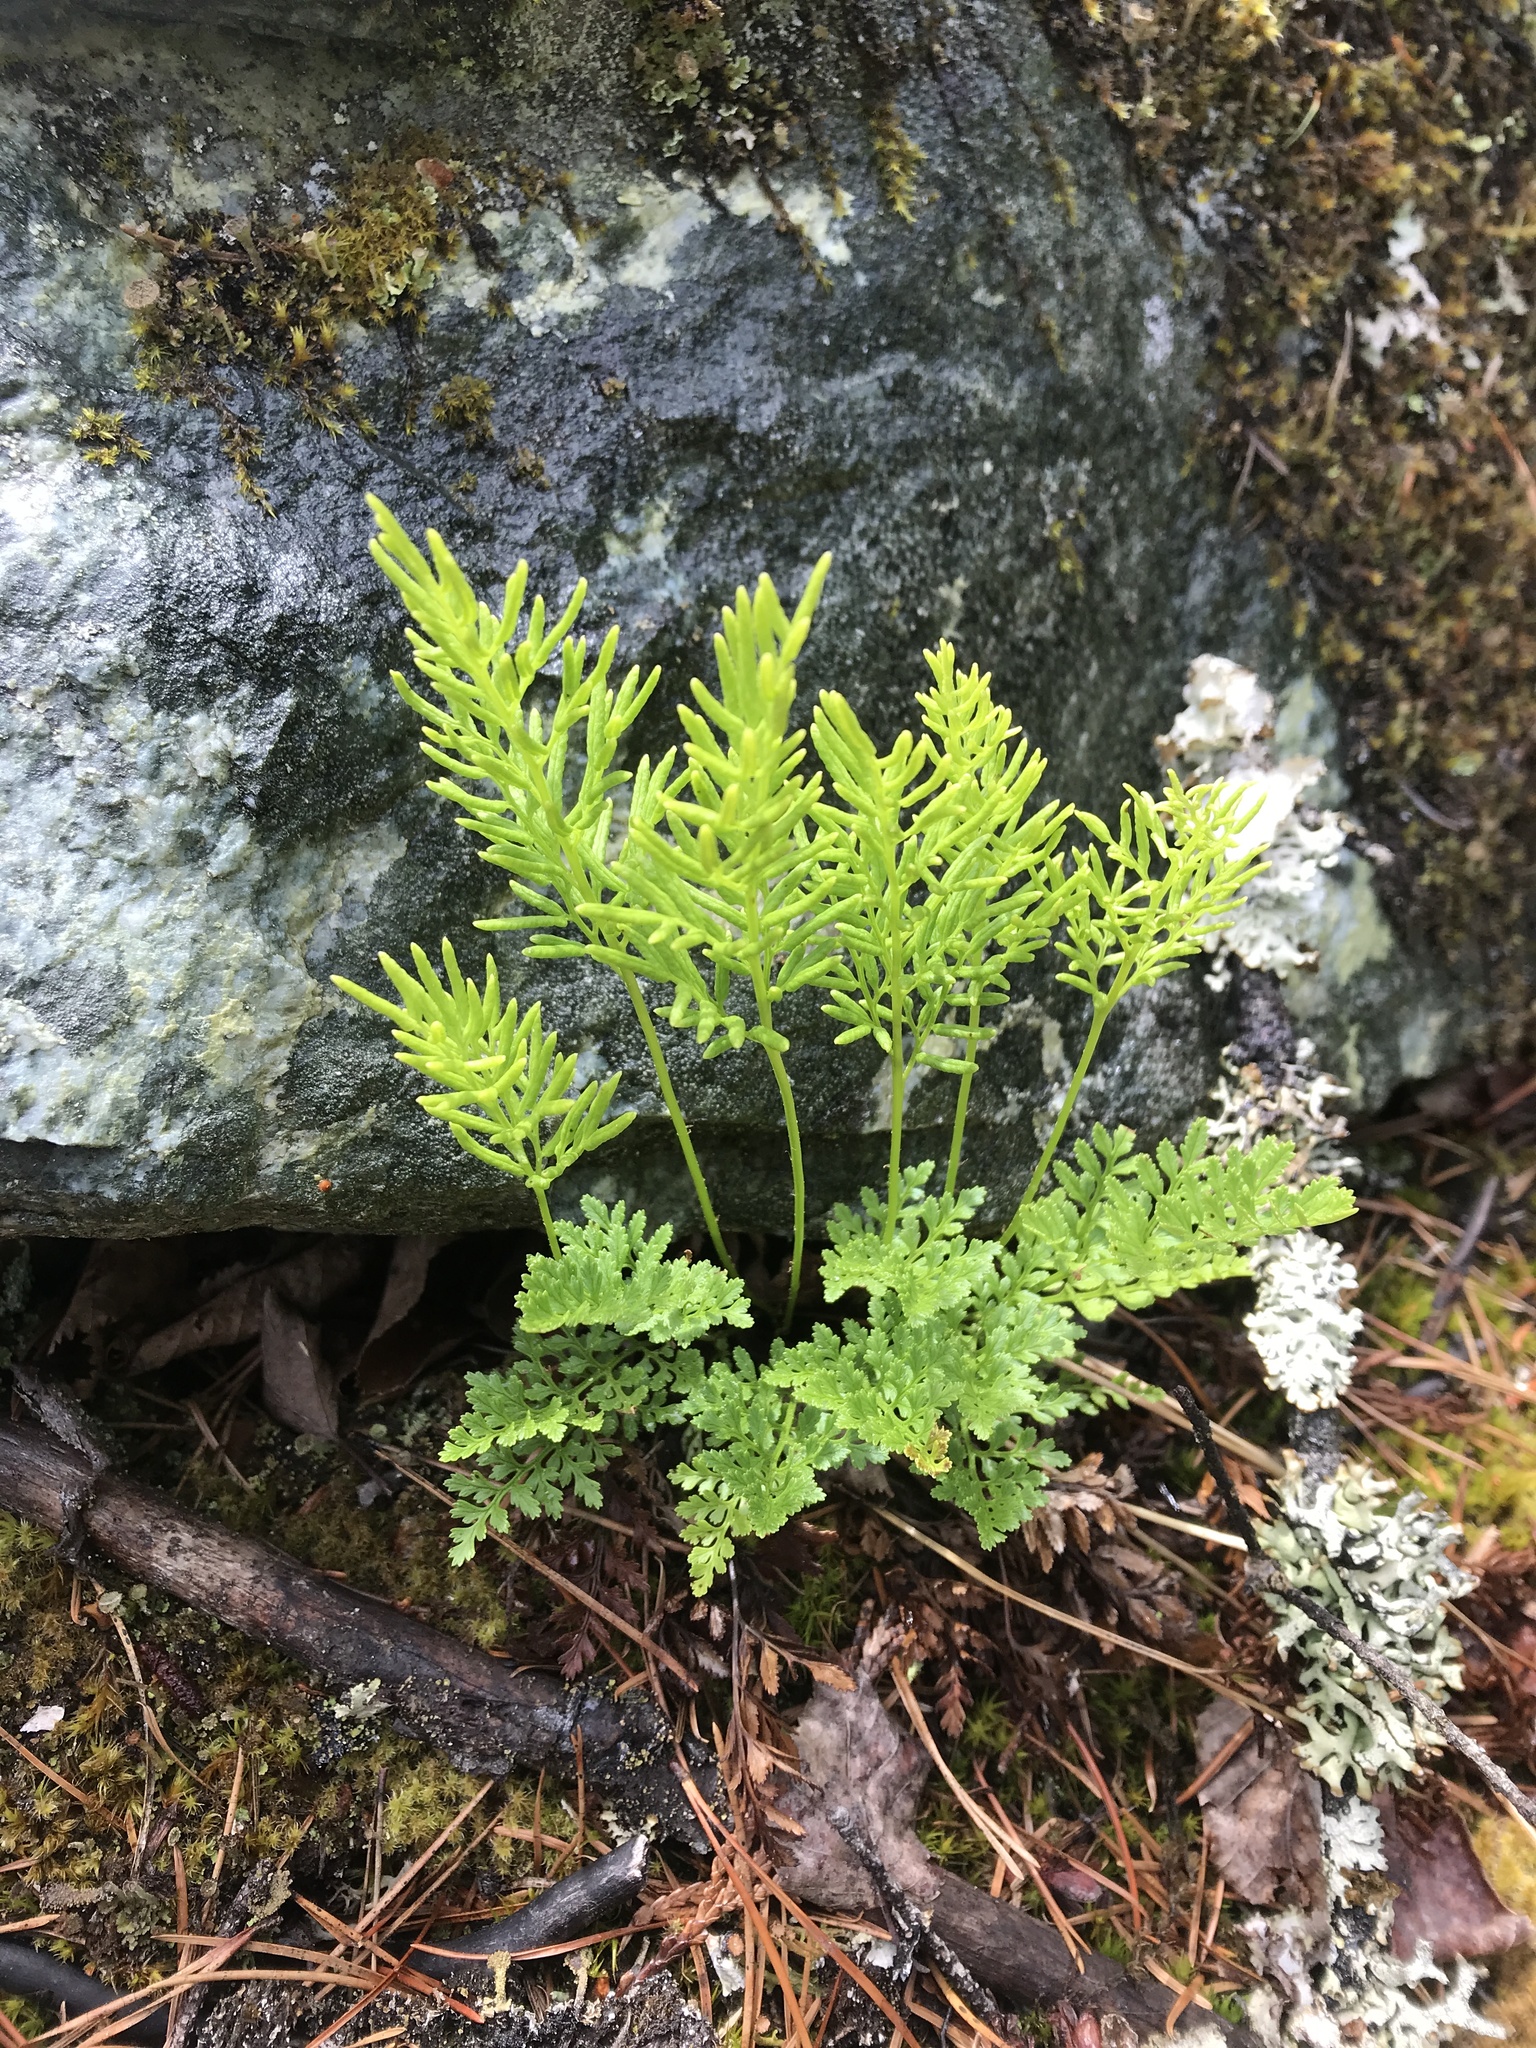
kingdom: Plantae
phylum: Tracheophyta
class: Polypodiopsida
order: Polypodiales
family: Pteridaceae
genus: Cryptogramma
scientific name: Cryptogramma acrostichoides
